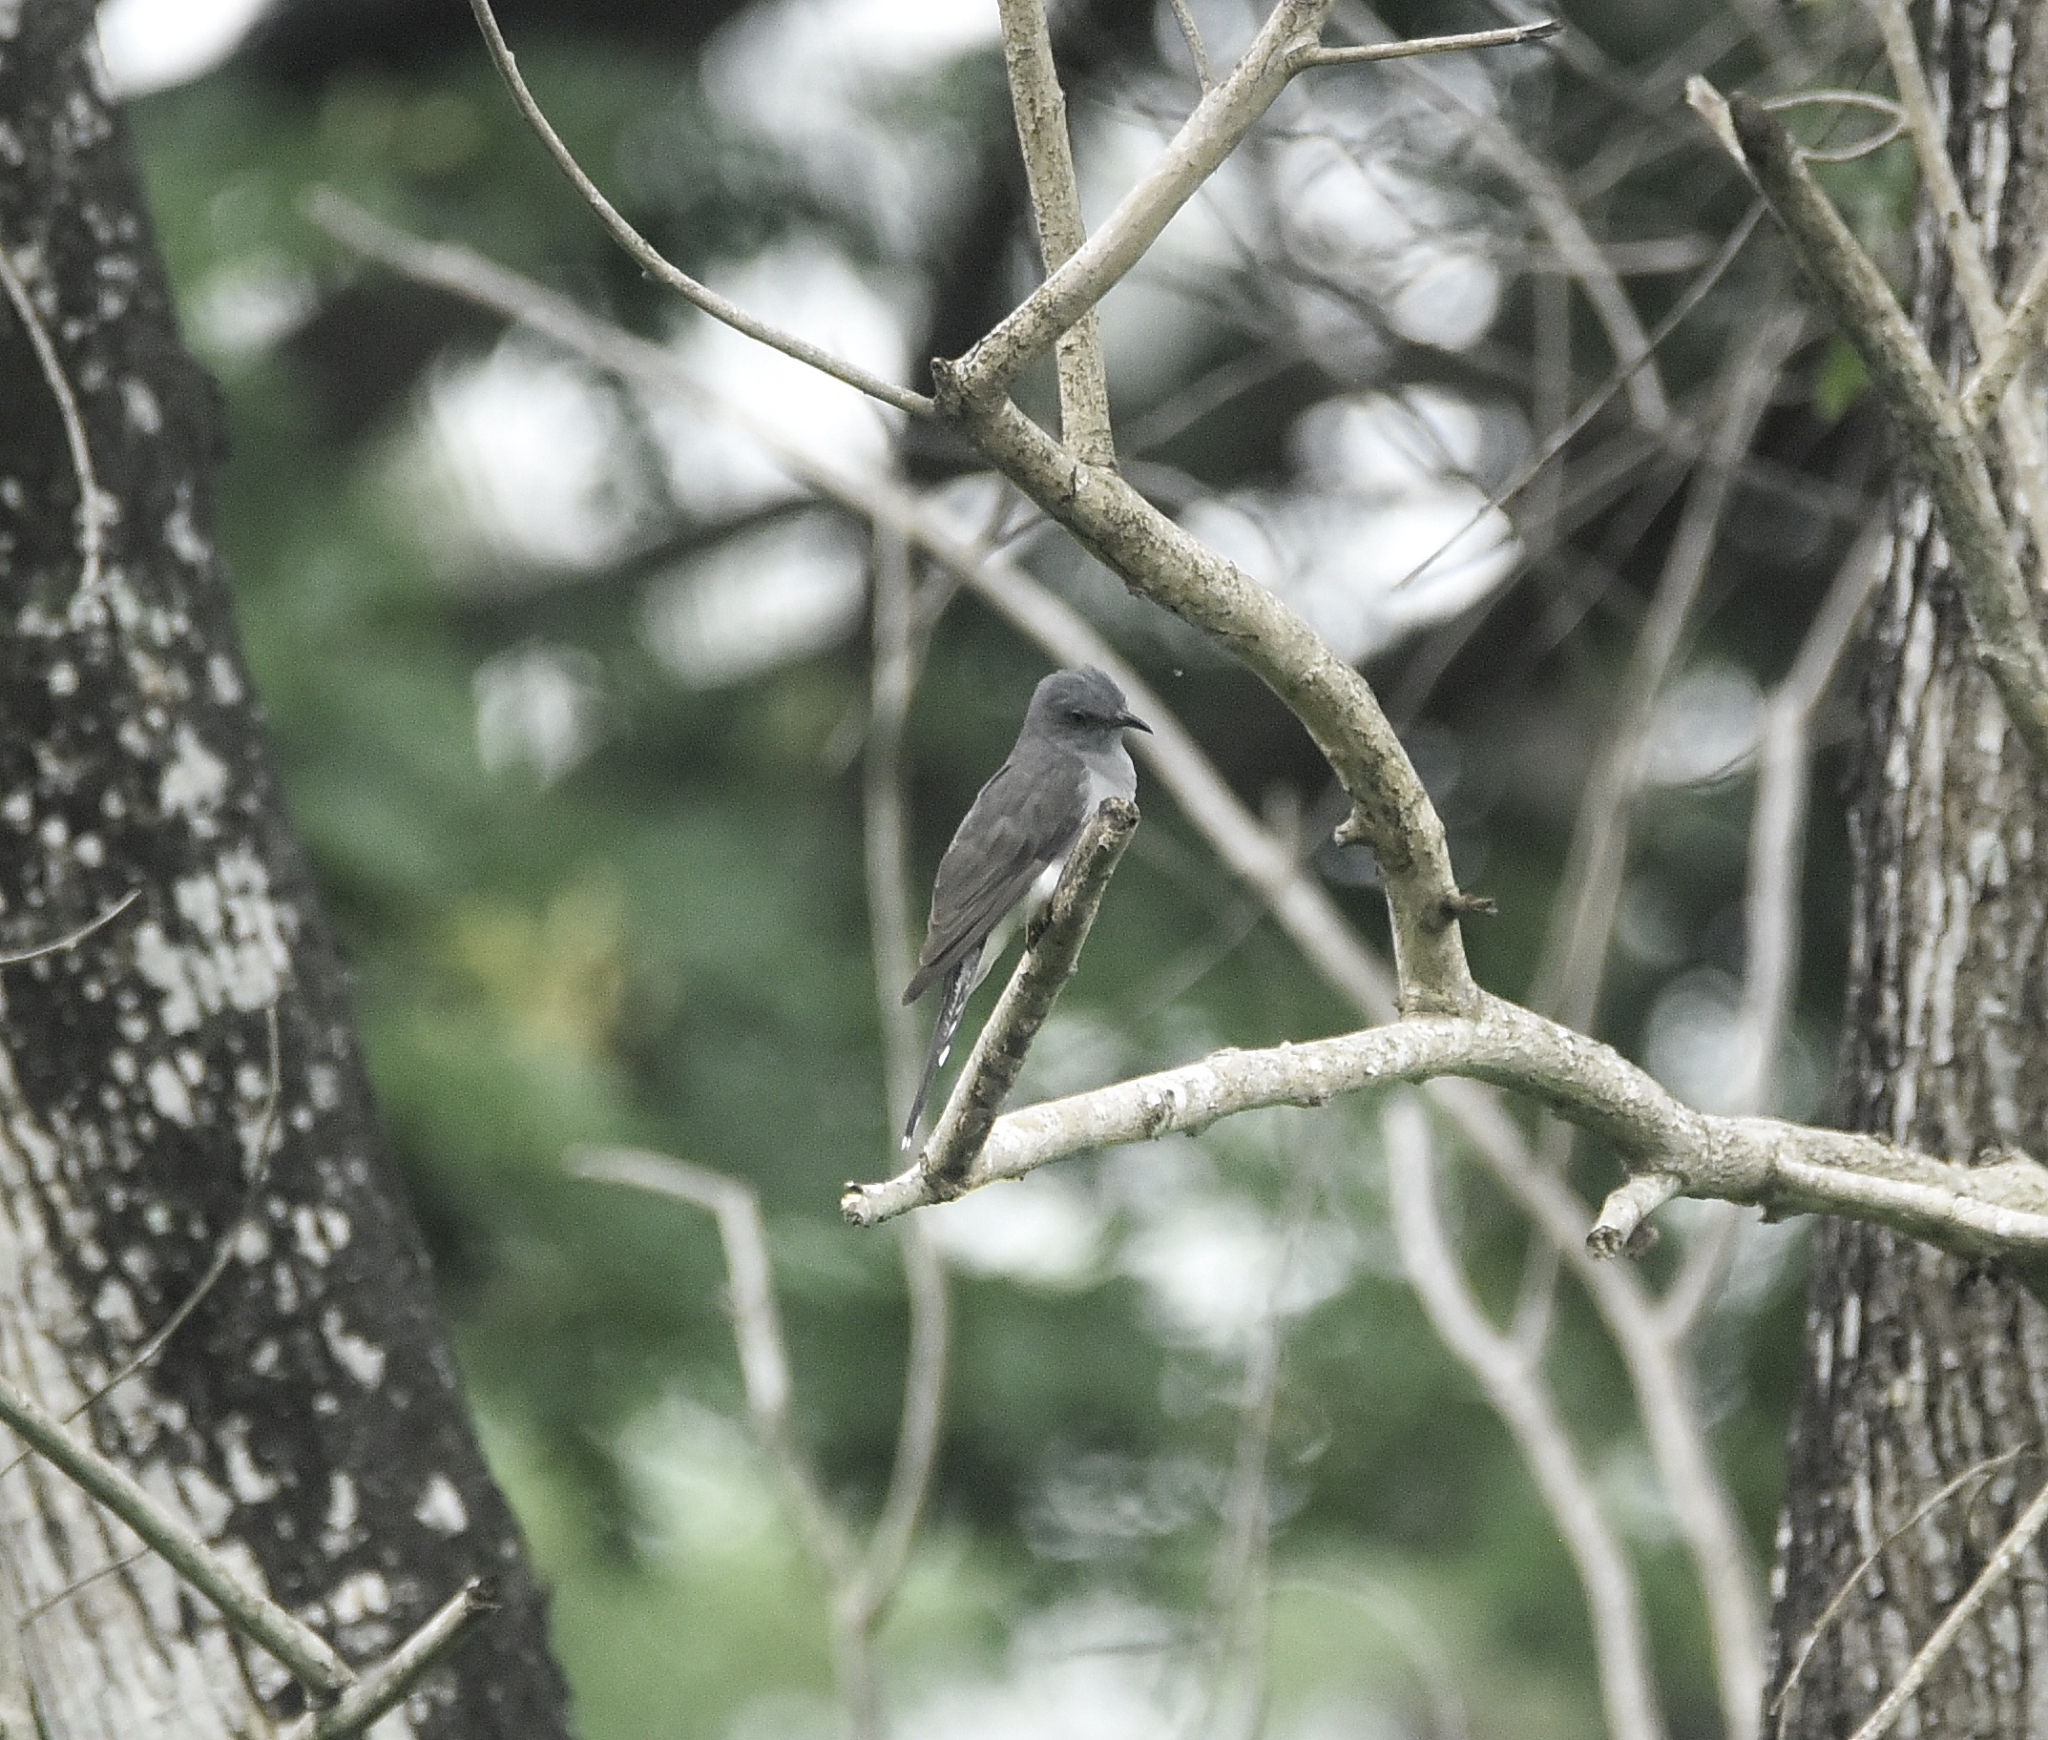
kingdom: Animalia
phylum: Chordata
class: Aves
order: Cuculiformes
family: Cuculidae
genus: Cacomantis
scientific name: Cacomantis passerinus
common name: Grey-bellied cuckoo
